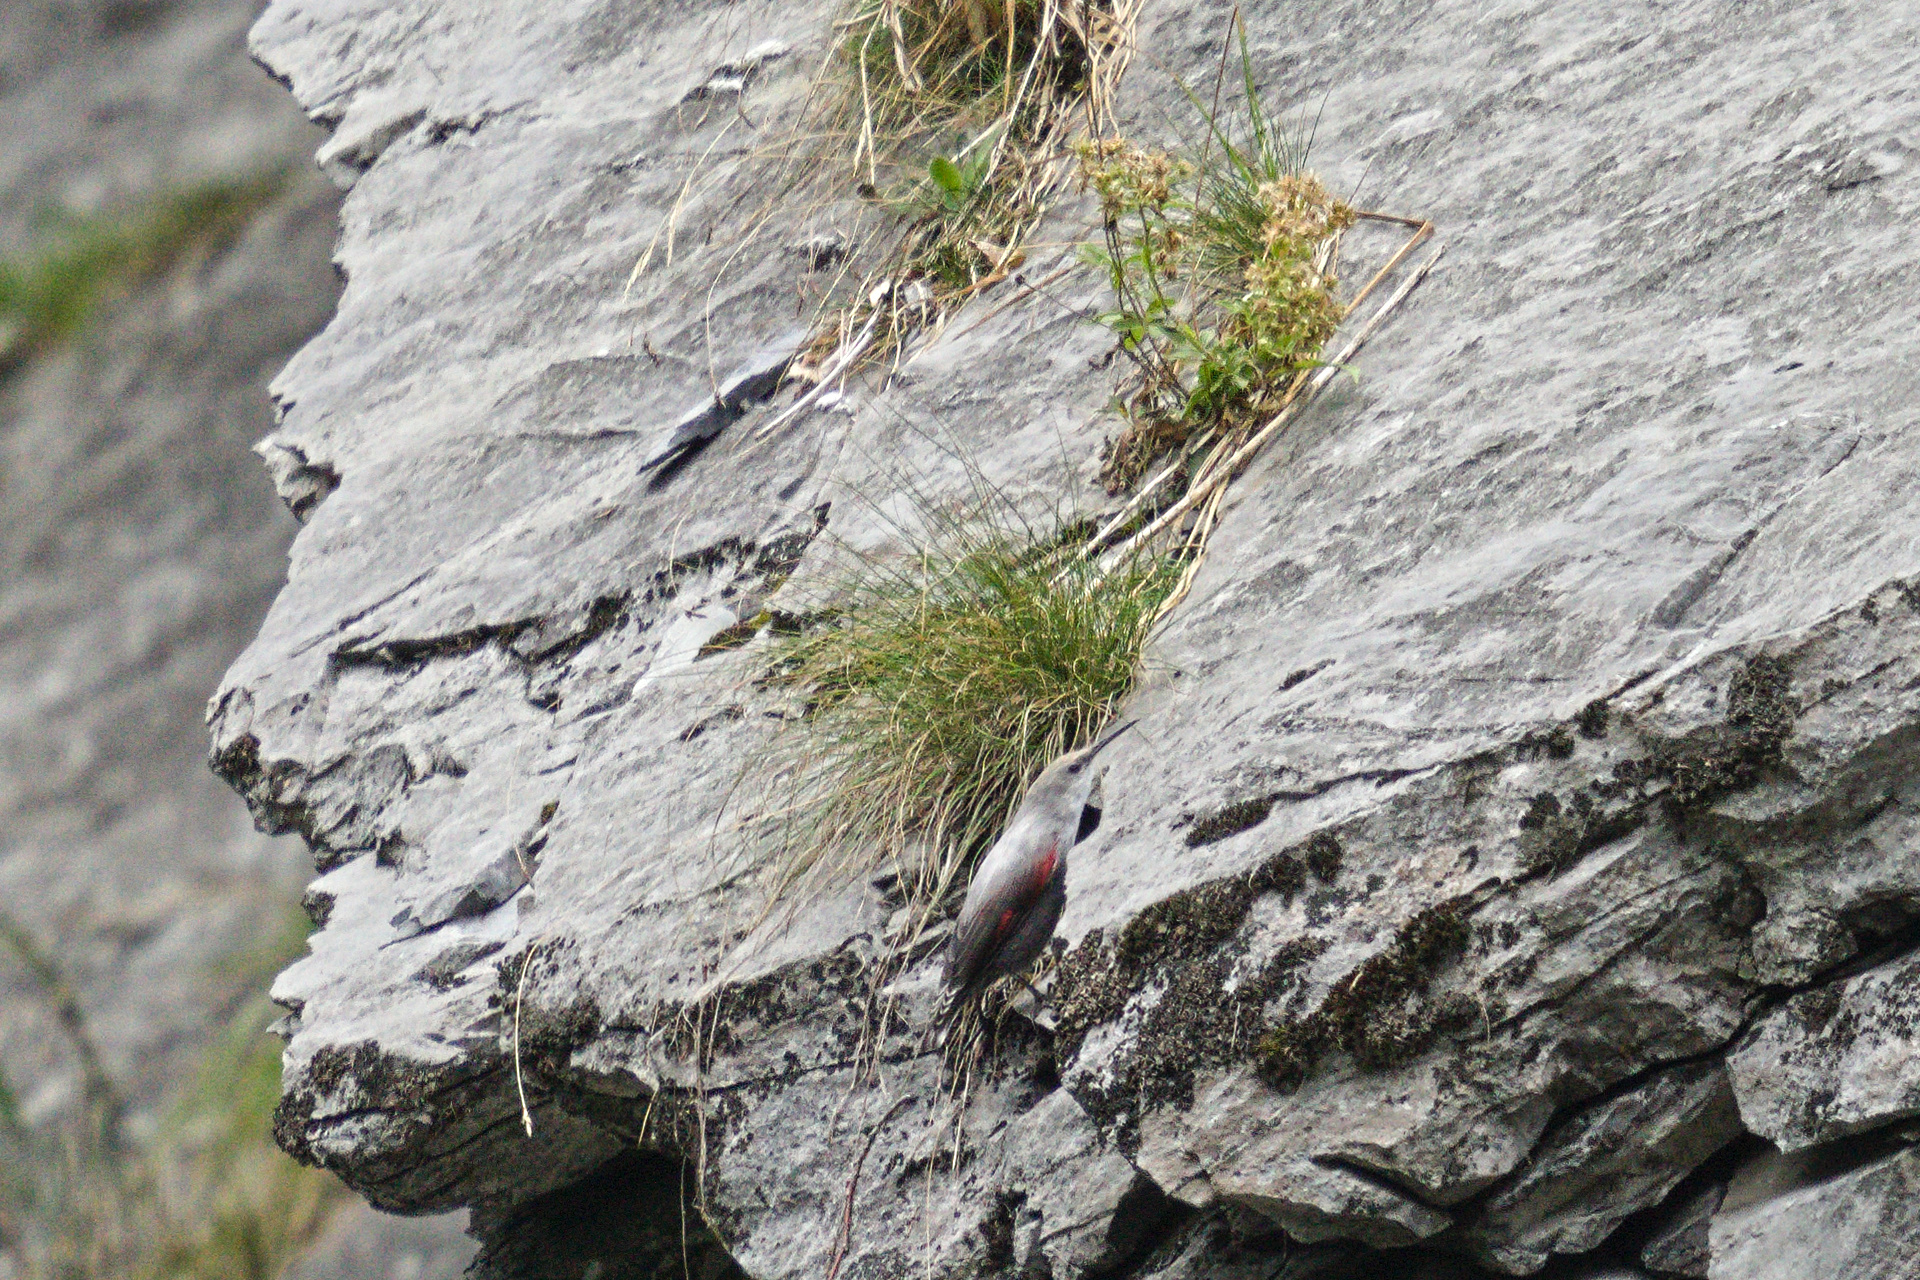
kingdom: Animalia
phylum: Chordata
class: Aves
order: Passeriformes
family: Tichodromidae
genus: Tichodroma
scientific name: Tichodroma muraria
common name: Wallcreeper
